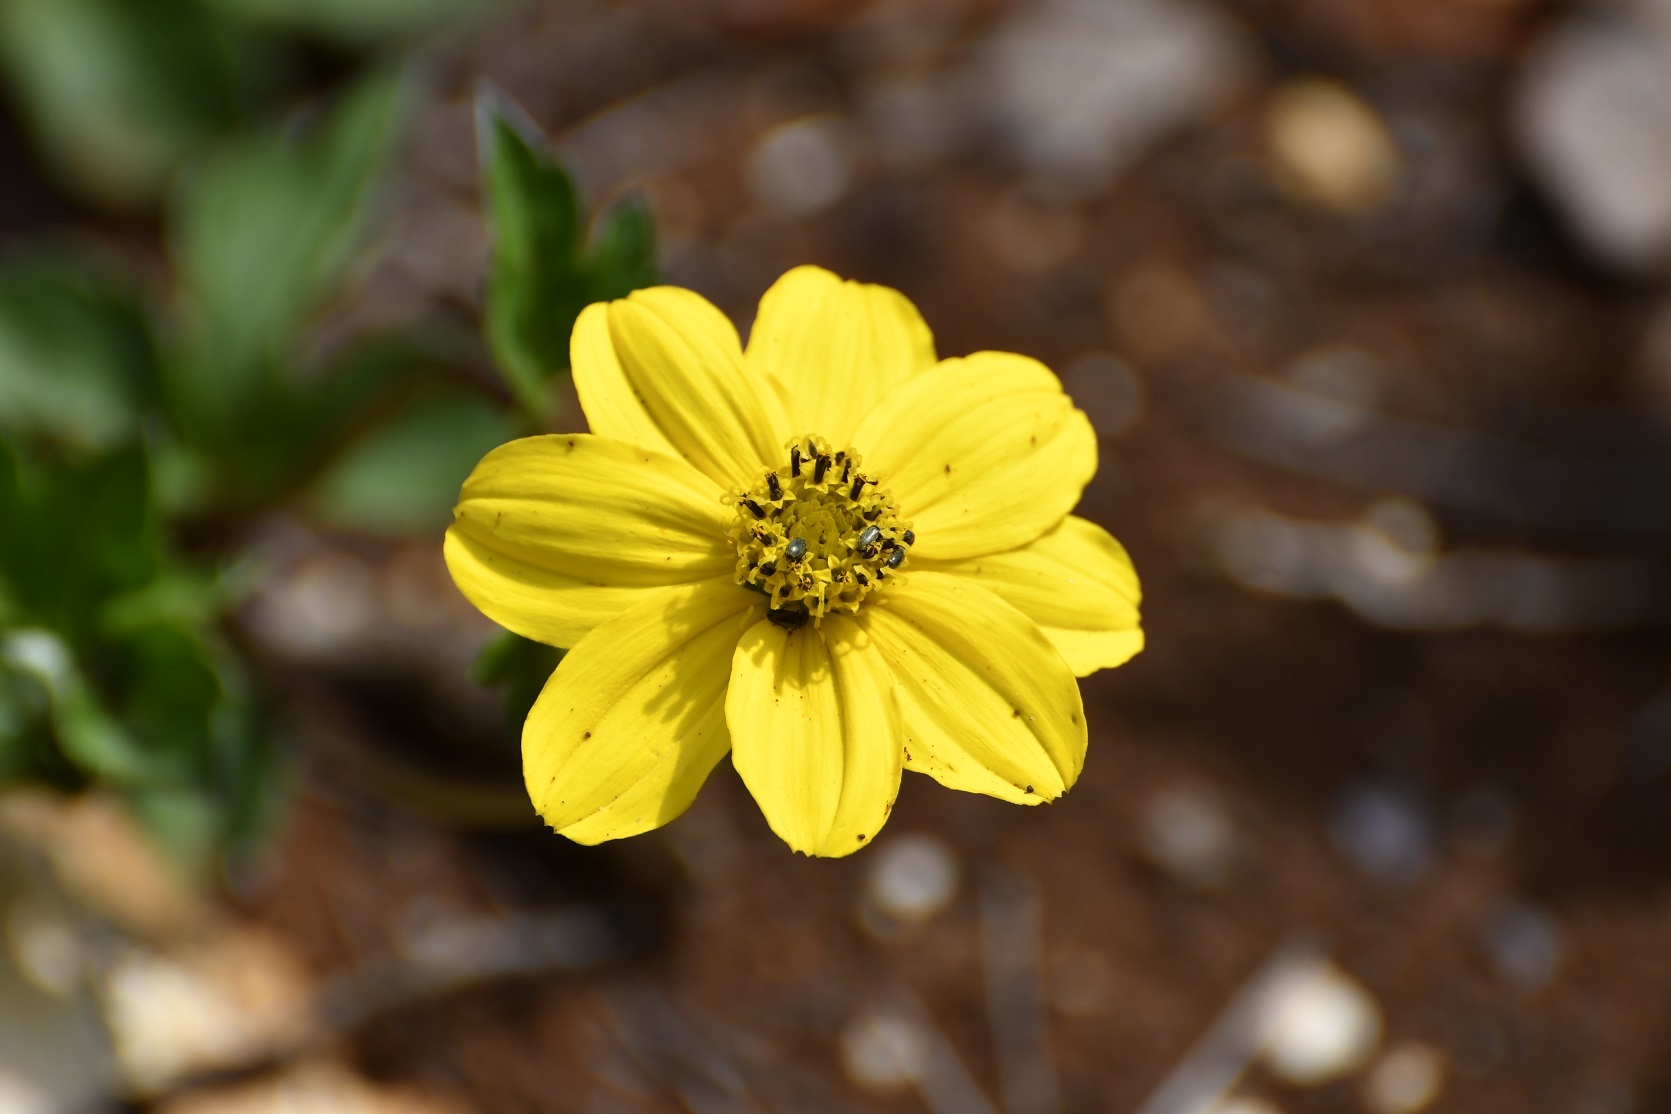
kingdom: Plantae
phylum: Tracheophyta
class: Magnoliopsida
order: Asterales
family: Asteraceae
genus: Bidens
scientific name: Bidens ostruthioides
